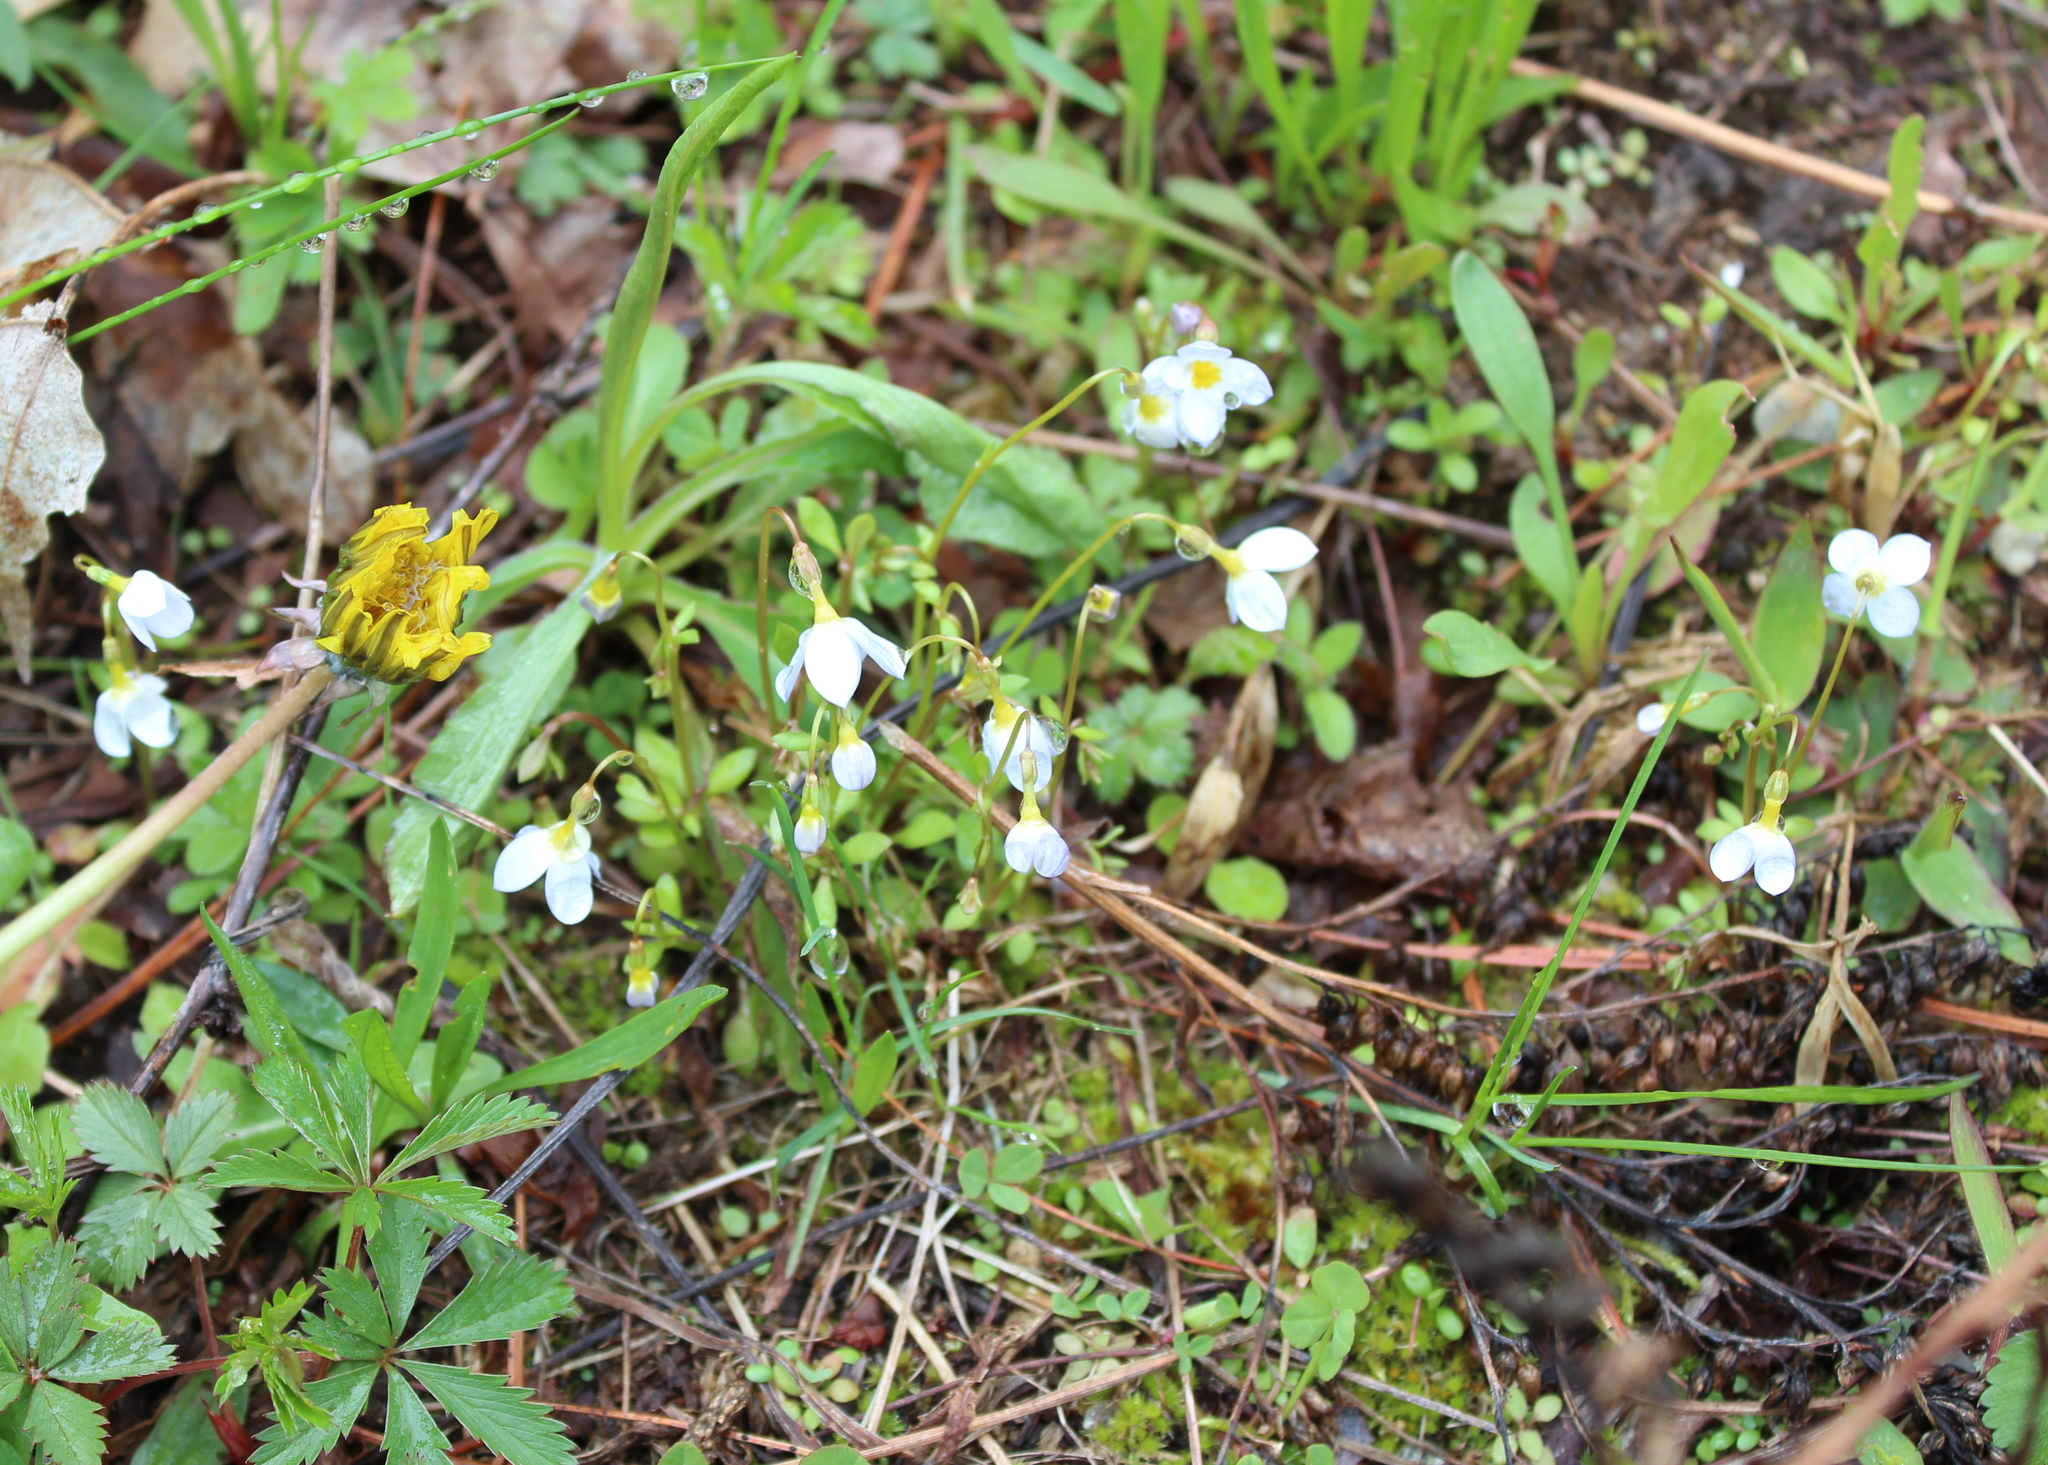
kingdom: Plantae
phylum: Tracheophyta
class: Magnoliopsida
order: Gentianales
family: Rubiaceae
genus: Houstonia
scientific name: Houstonia caerulea
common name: Bluets
